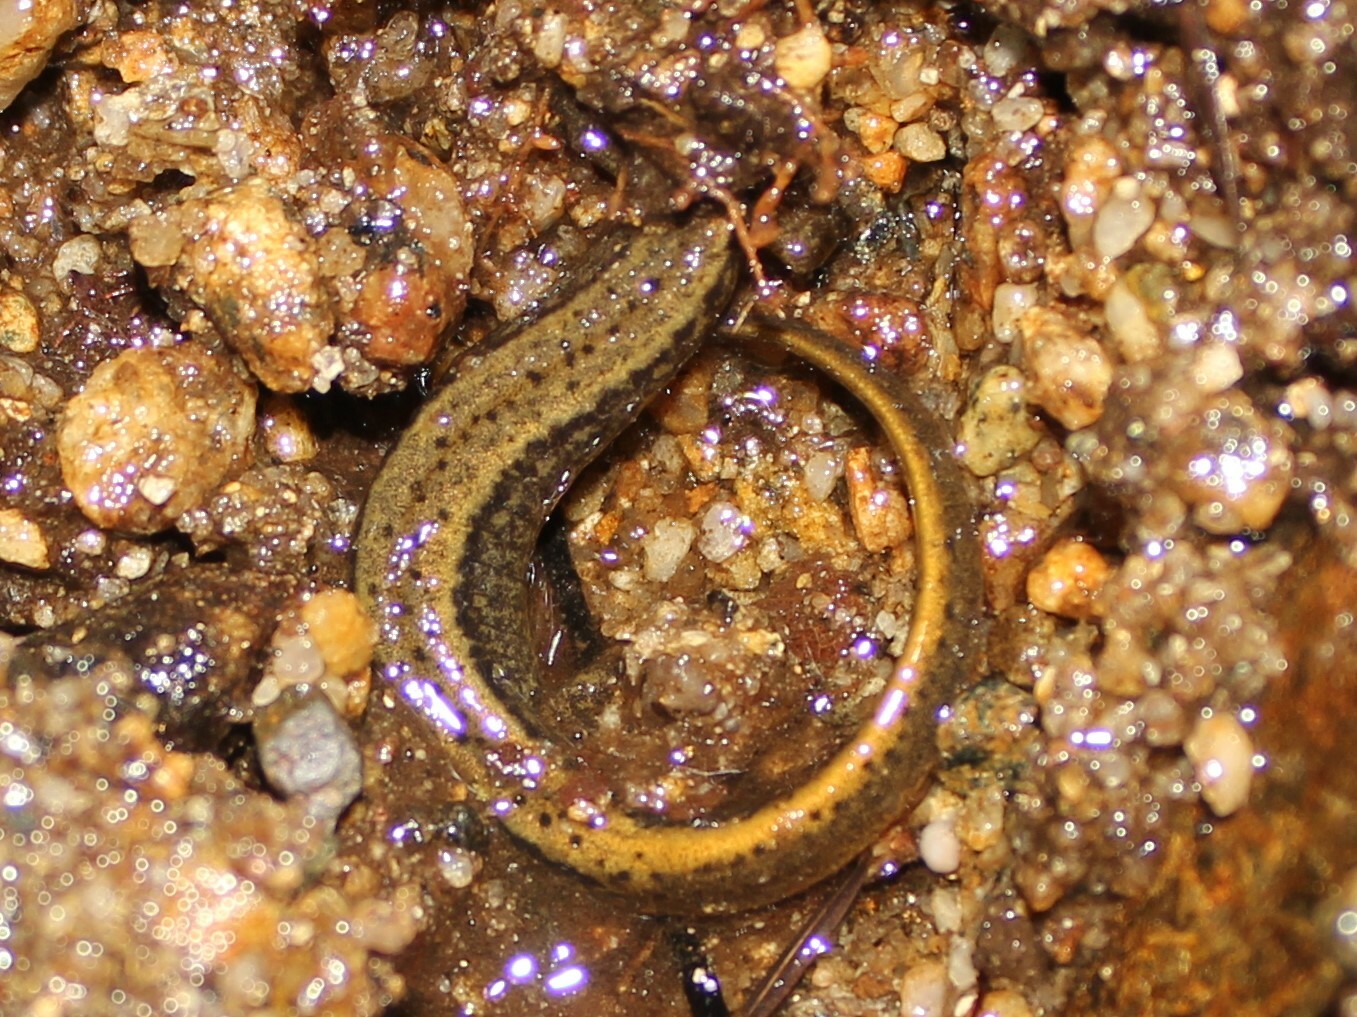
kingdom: Animalia
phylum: Chordata
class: Amphibia
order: Caudata
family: Plethodontidae
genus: Eurycea
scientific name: Eurycea bislineata
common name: Northern two-lined salamander
